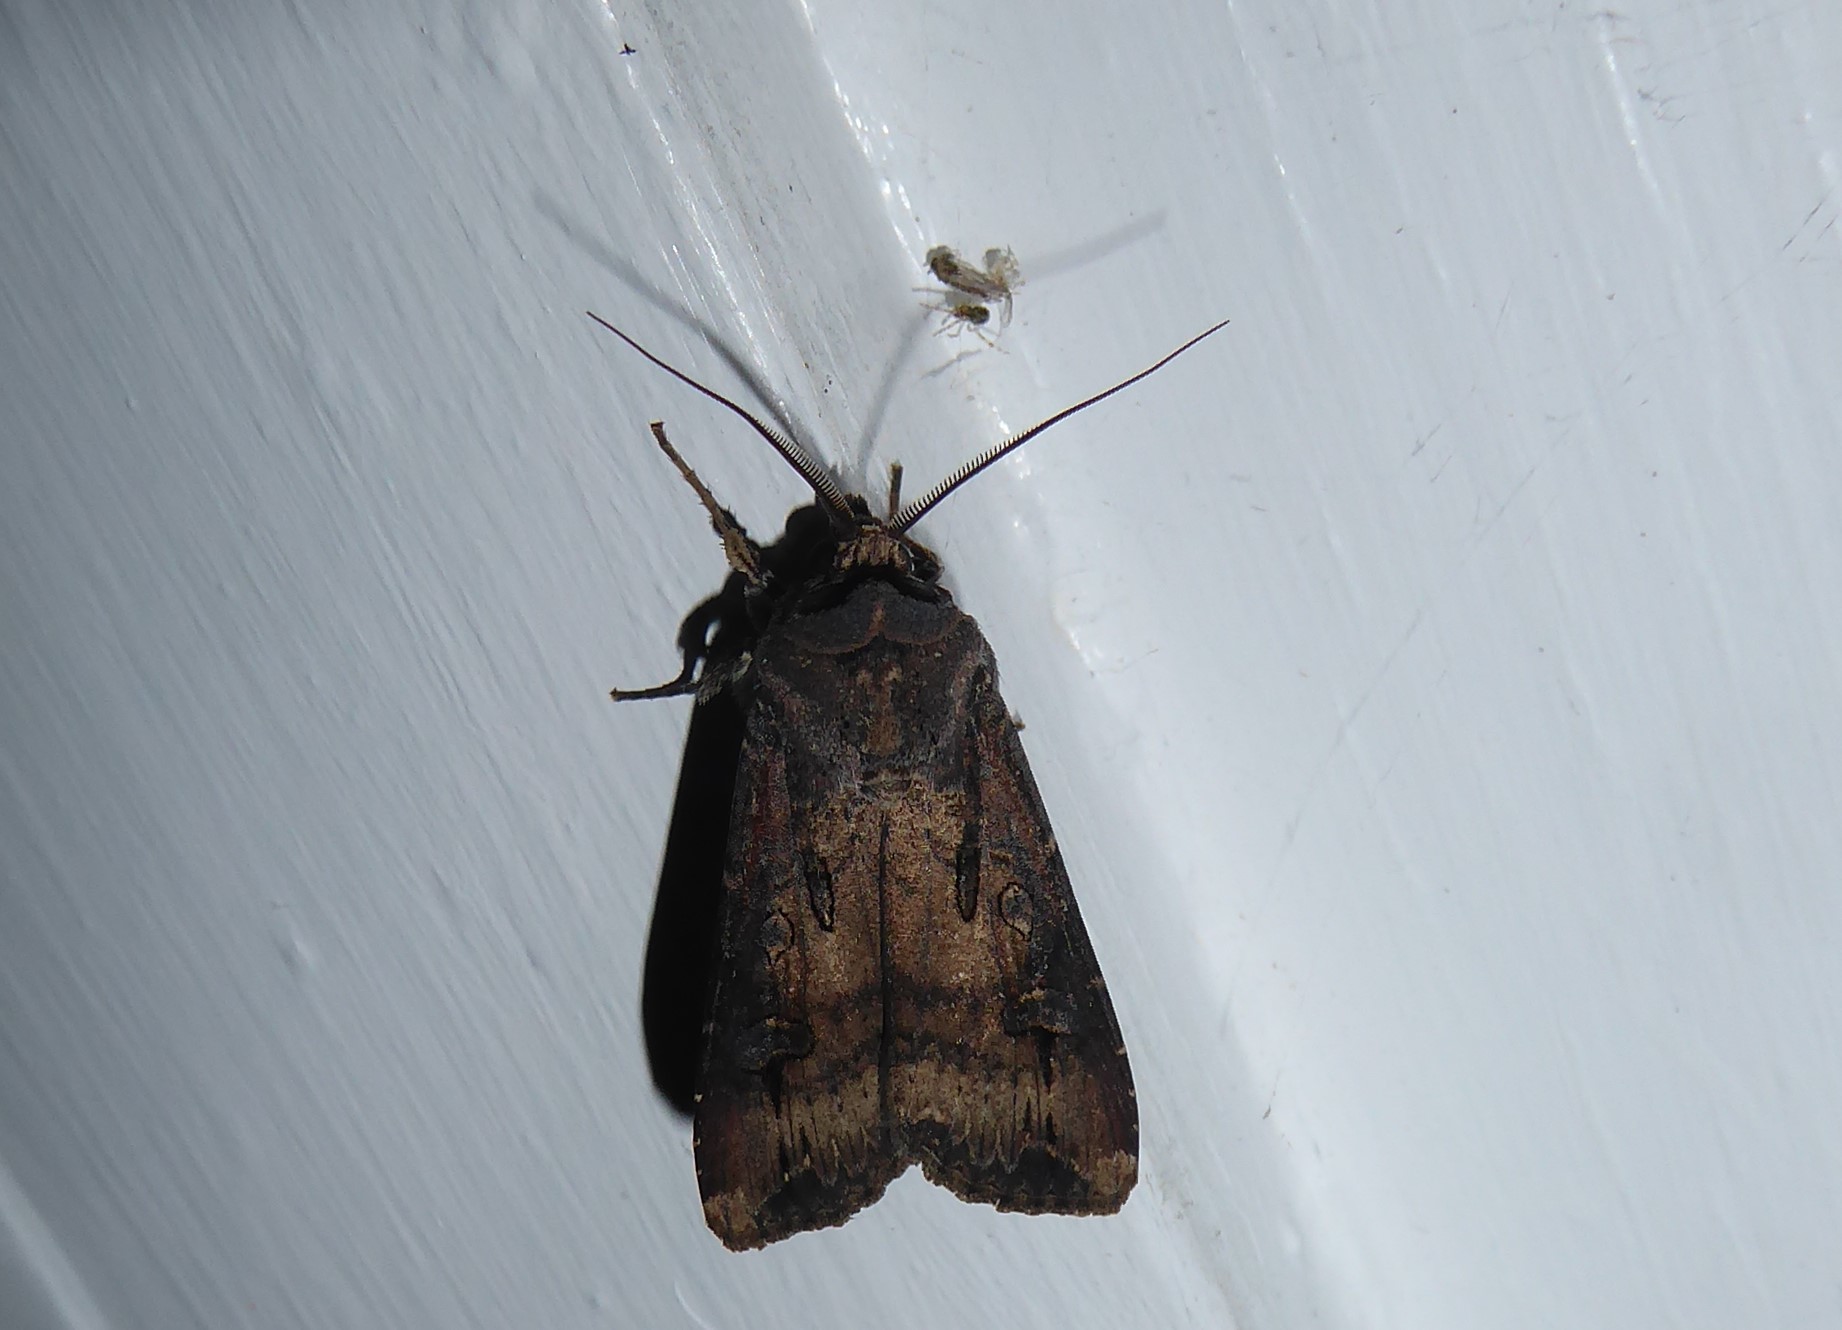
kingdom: Animalia
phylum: Arthropoda
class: Insecta
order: Lepidoptera
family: Noctuidae
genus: Agrotis
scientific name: Agrotis ipsilon
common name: Dark sword-grass
